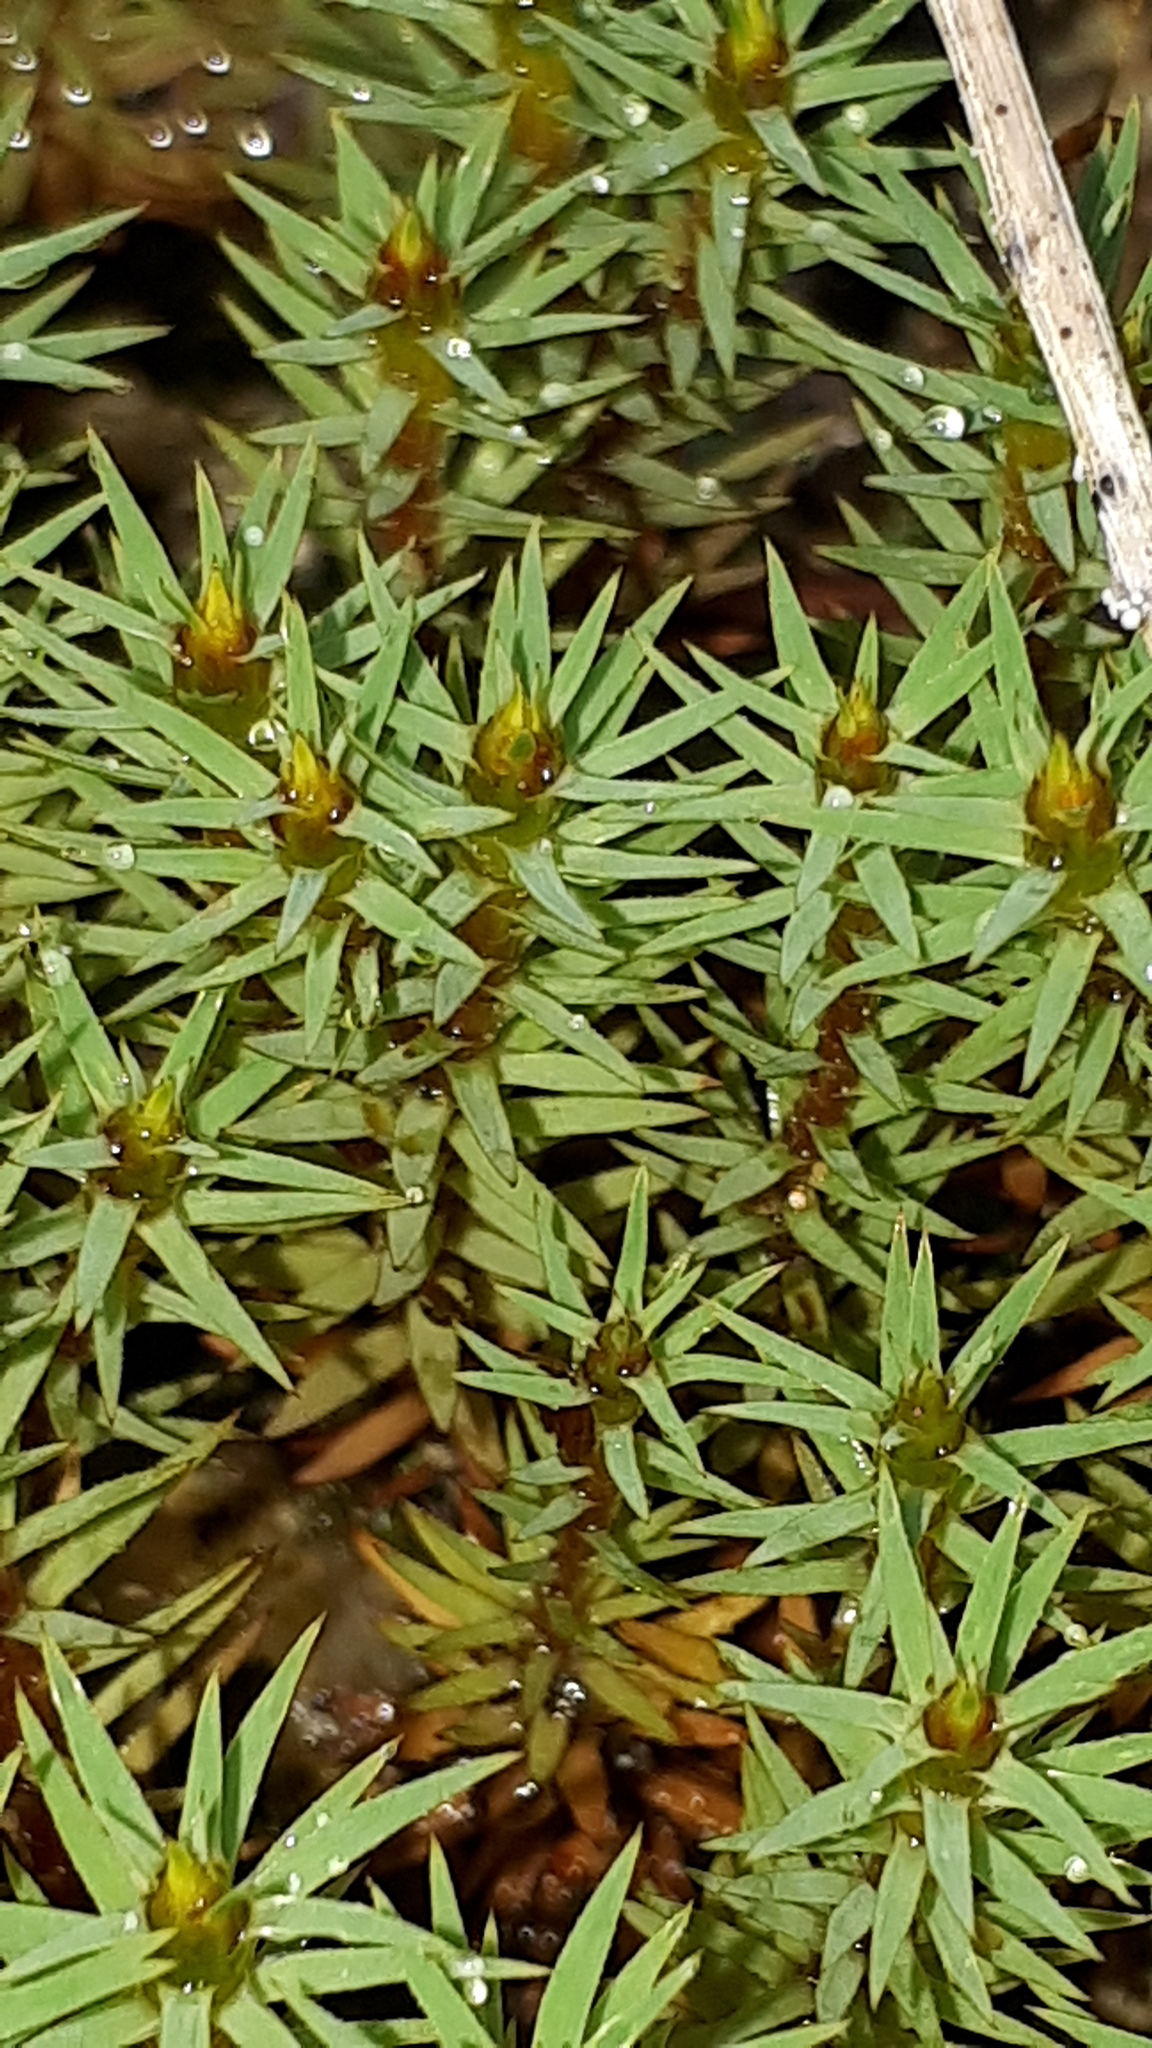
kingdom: Plantae
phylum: Bryophyta
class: Polytrichopsida
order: Polytrichales
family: Polytrichaceae
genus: Pogonatum
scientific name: Pogonatum urnigerum
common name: Urn hair moss
